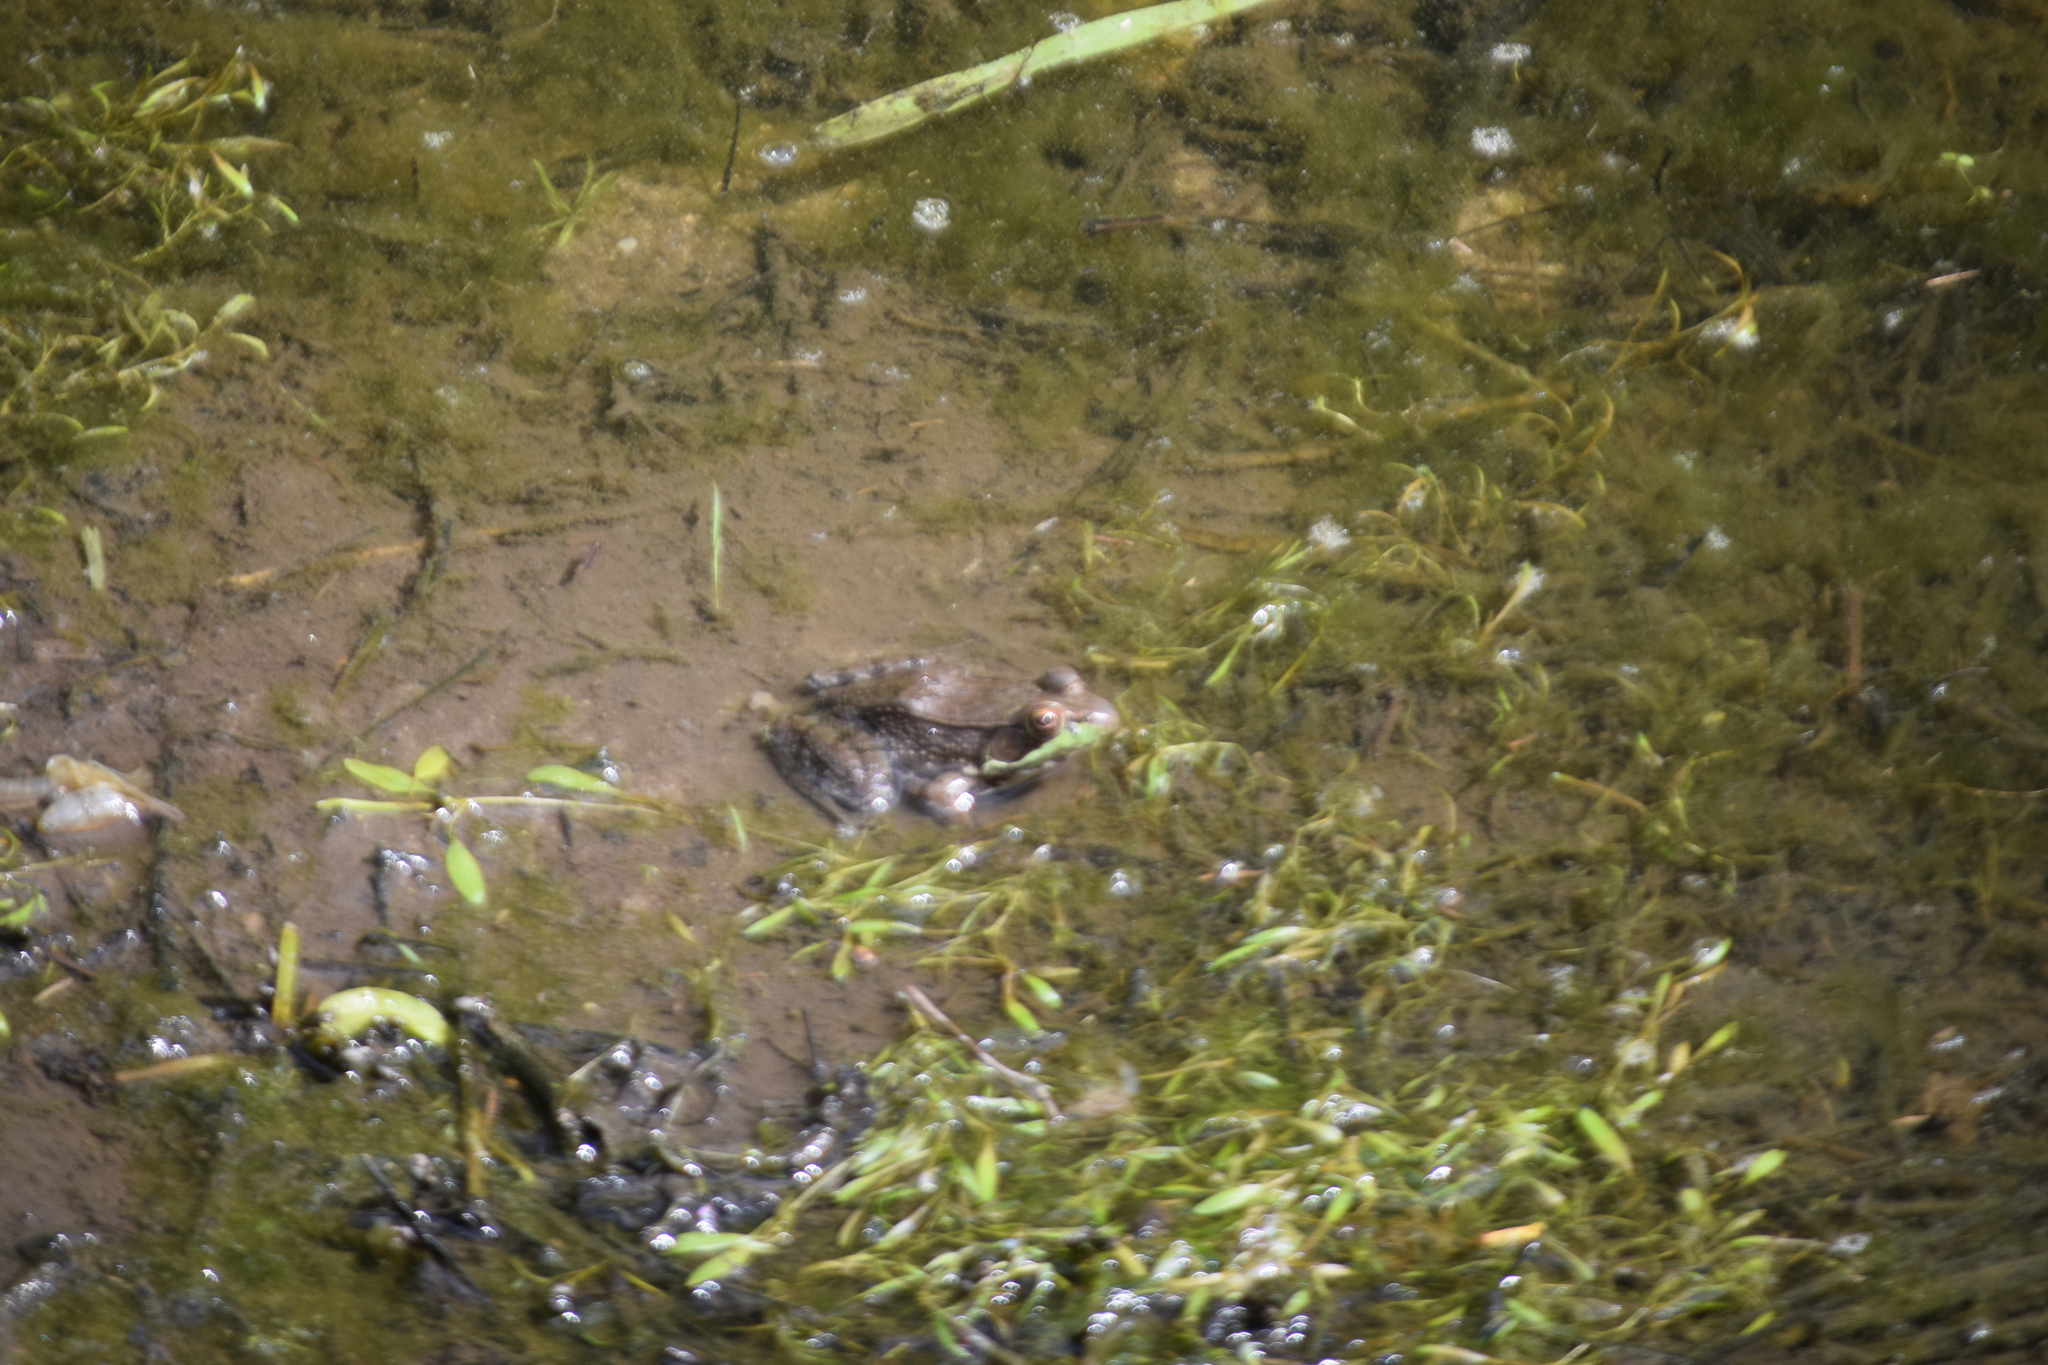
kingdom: Animalia
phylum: Chordata
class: Amphibia
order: Anura
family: Ranidae
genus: Lithobates
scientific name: Lithobates clamitans
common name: Green frog
